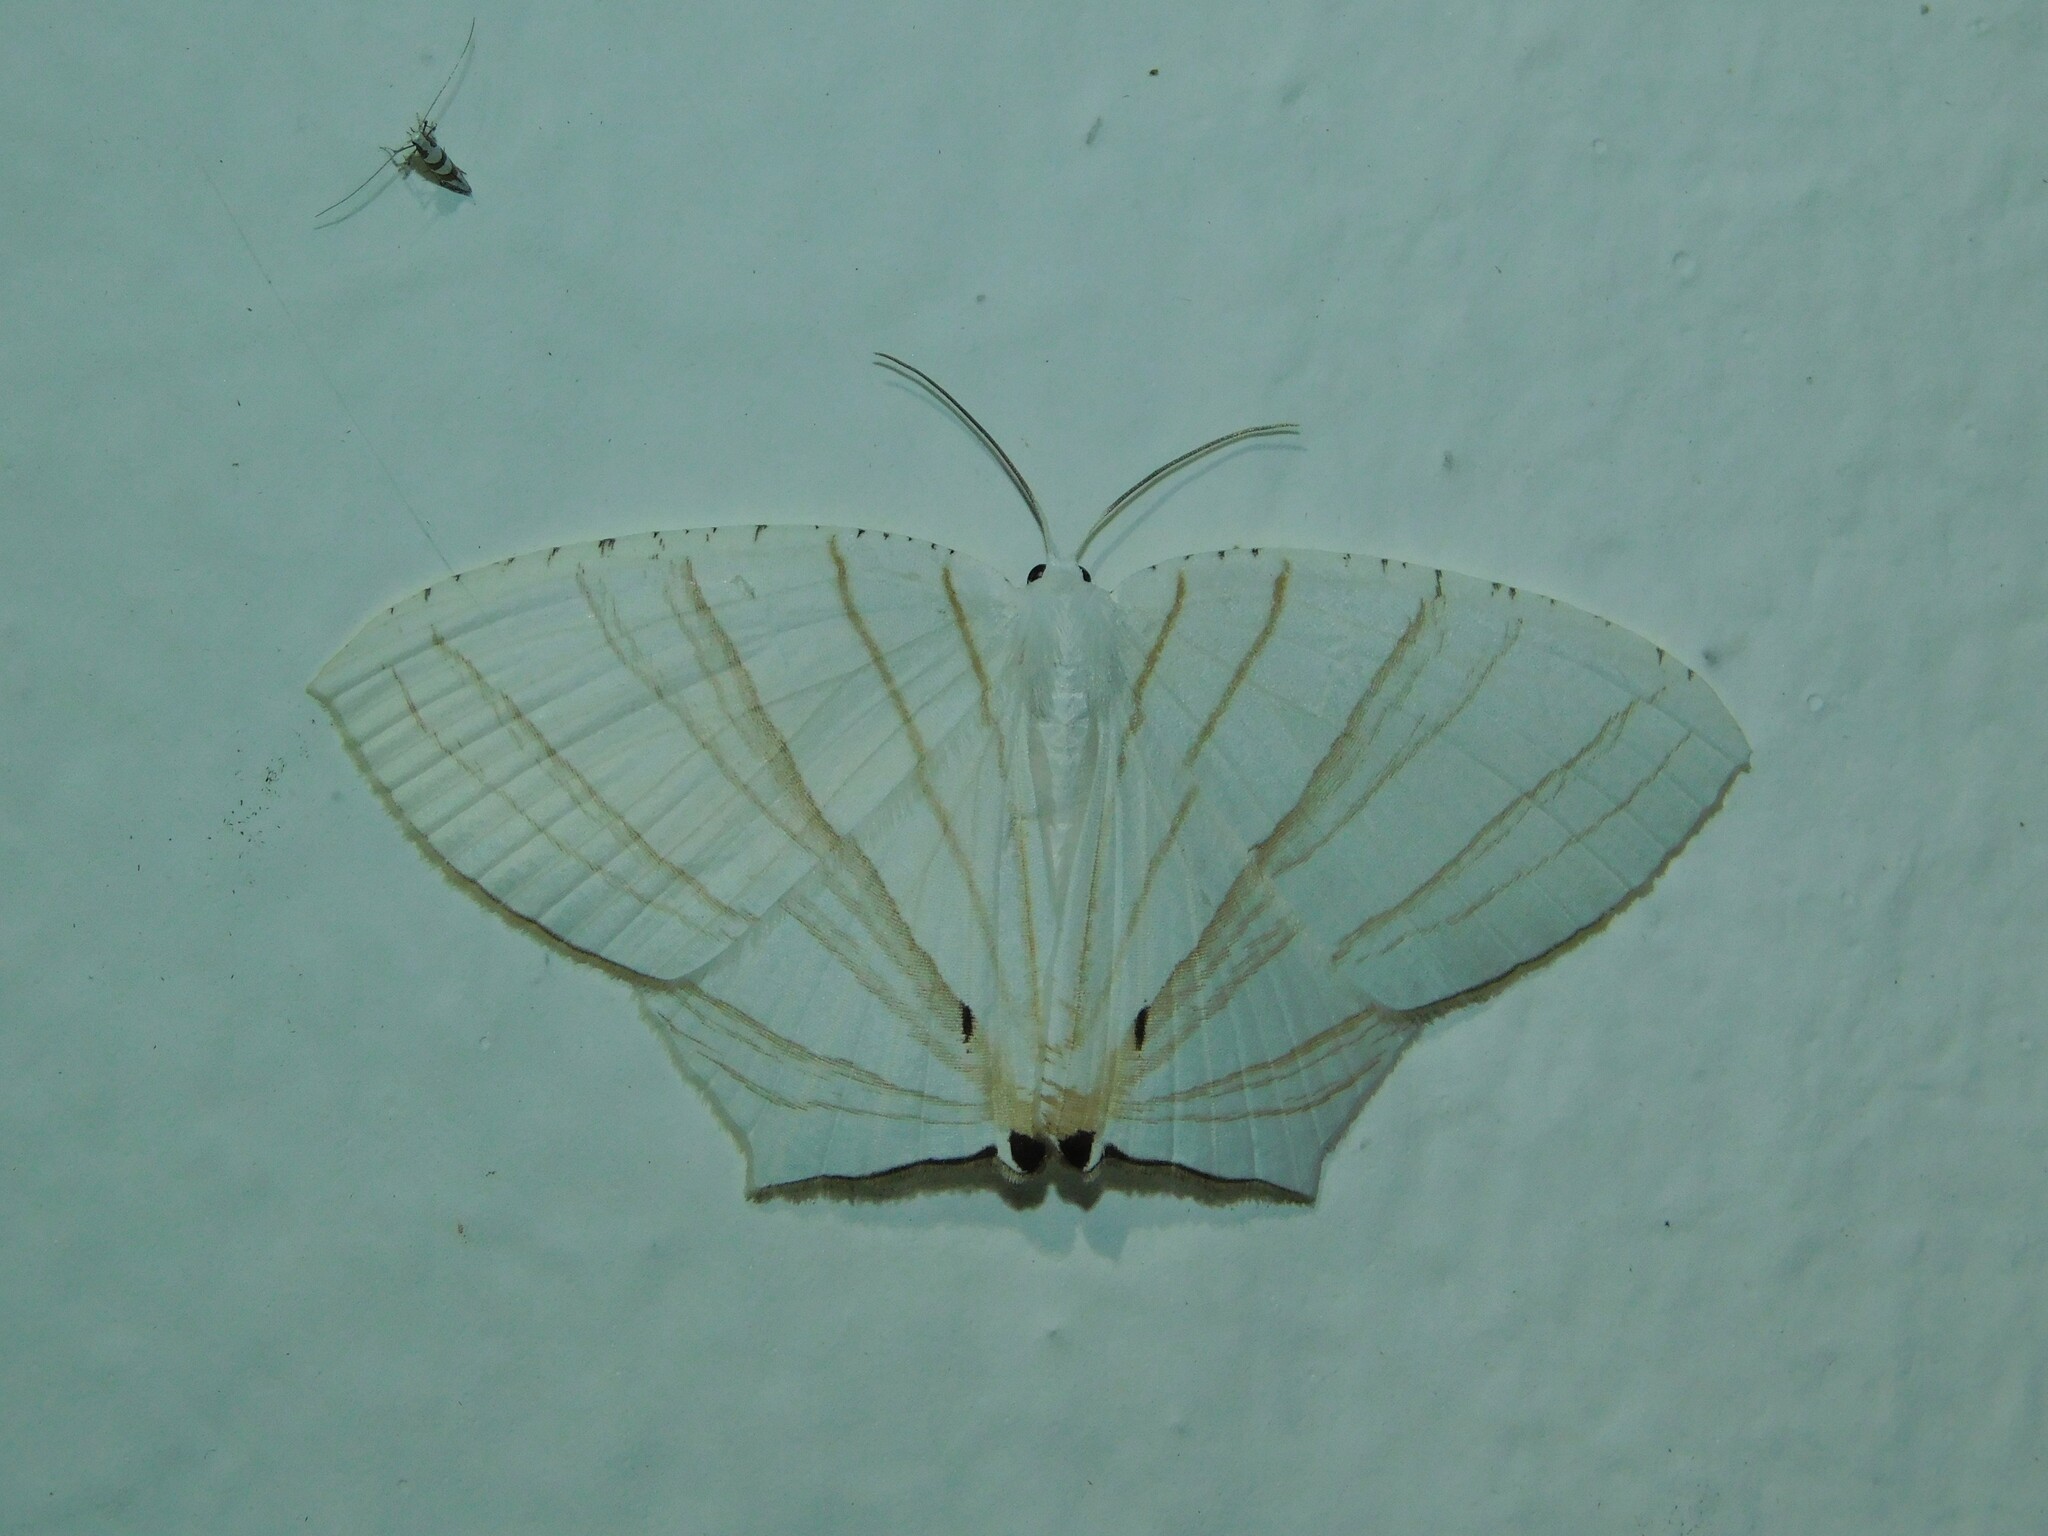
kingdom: Animalia
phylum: Arthropoda
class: Insecta
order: Lepidoptera
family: Uraniidae
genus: Dissoprumna
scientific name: Dissoprumna erycinaria
